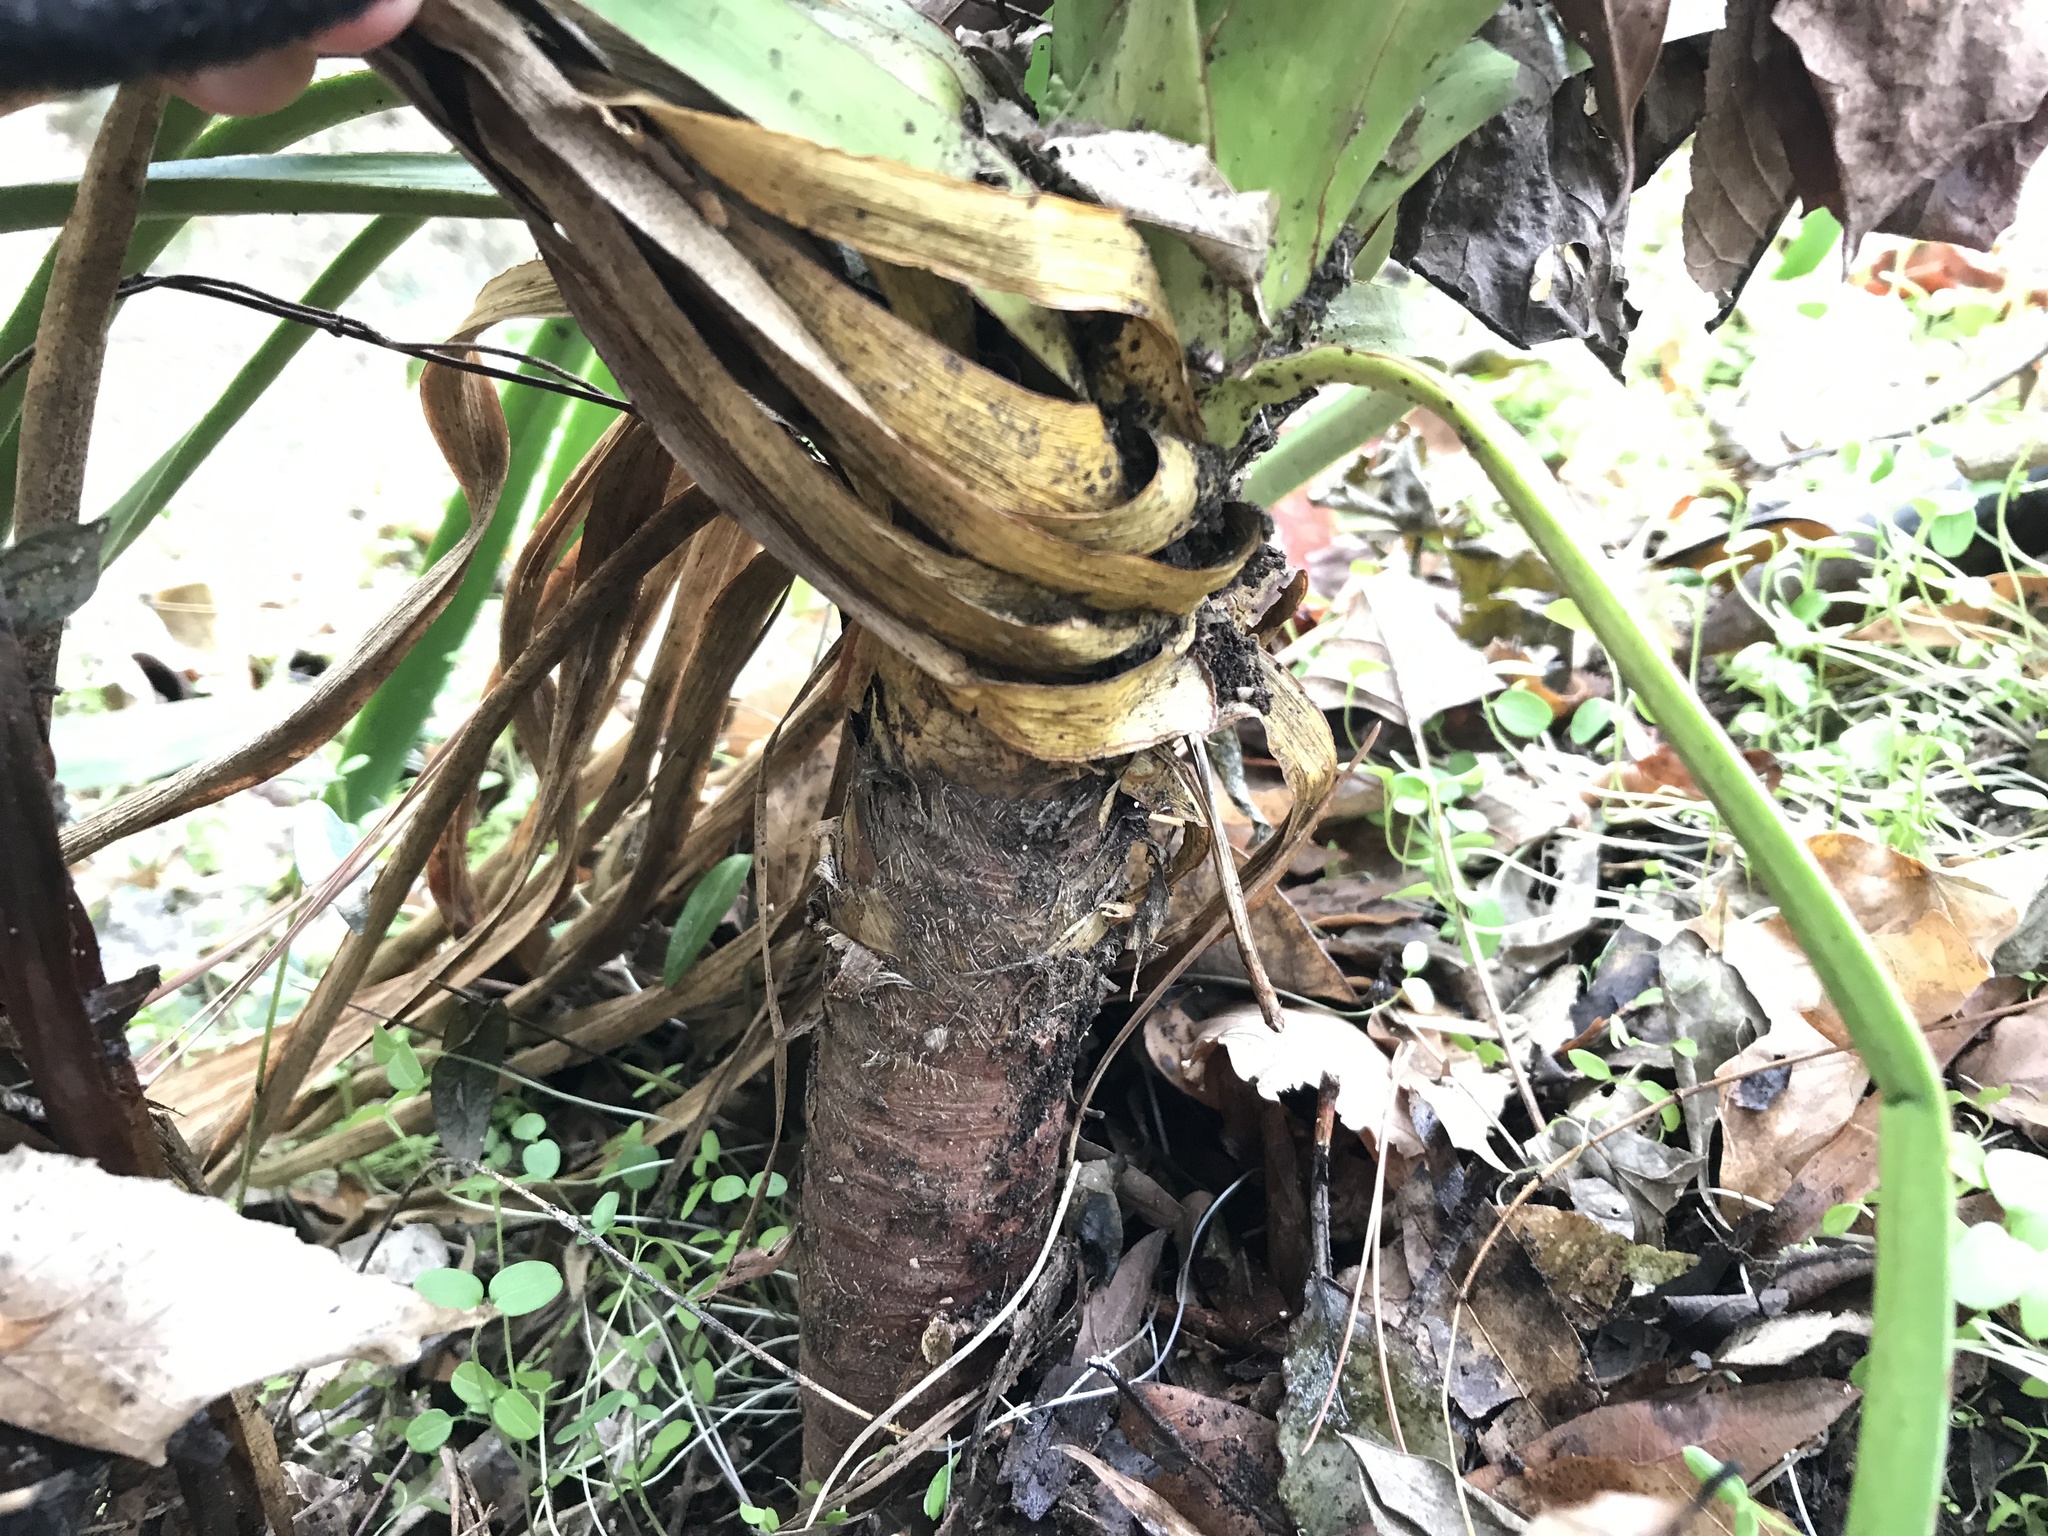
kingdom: Plantae
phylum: Tracheophyta
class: Liliopsida
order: Asparagales
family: Asparagaceae
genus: Yucca
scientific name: Yucca filamentosa
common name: Adam's-needle
